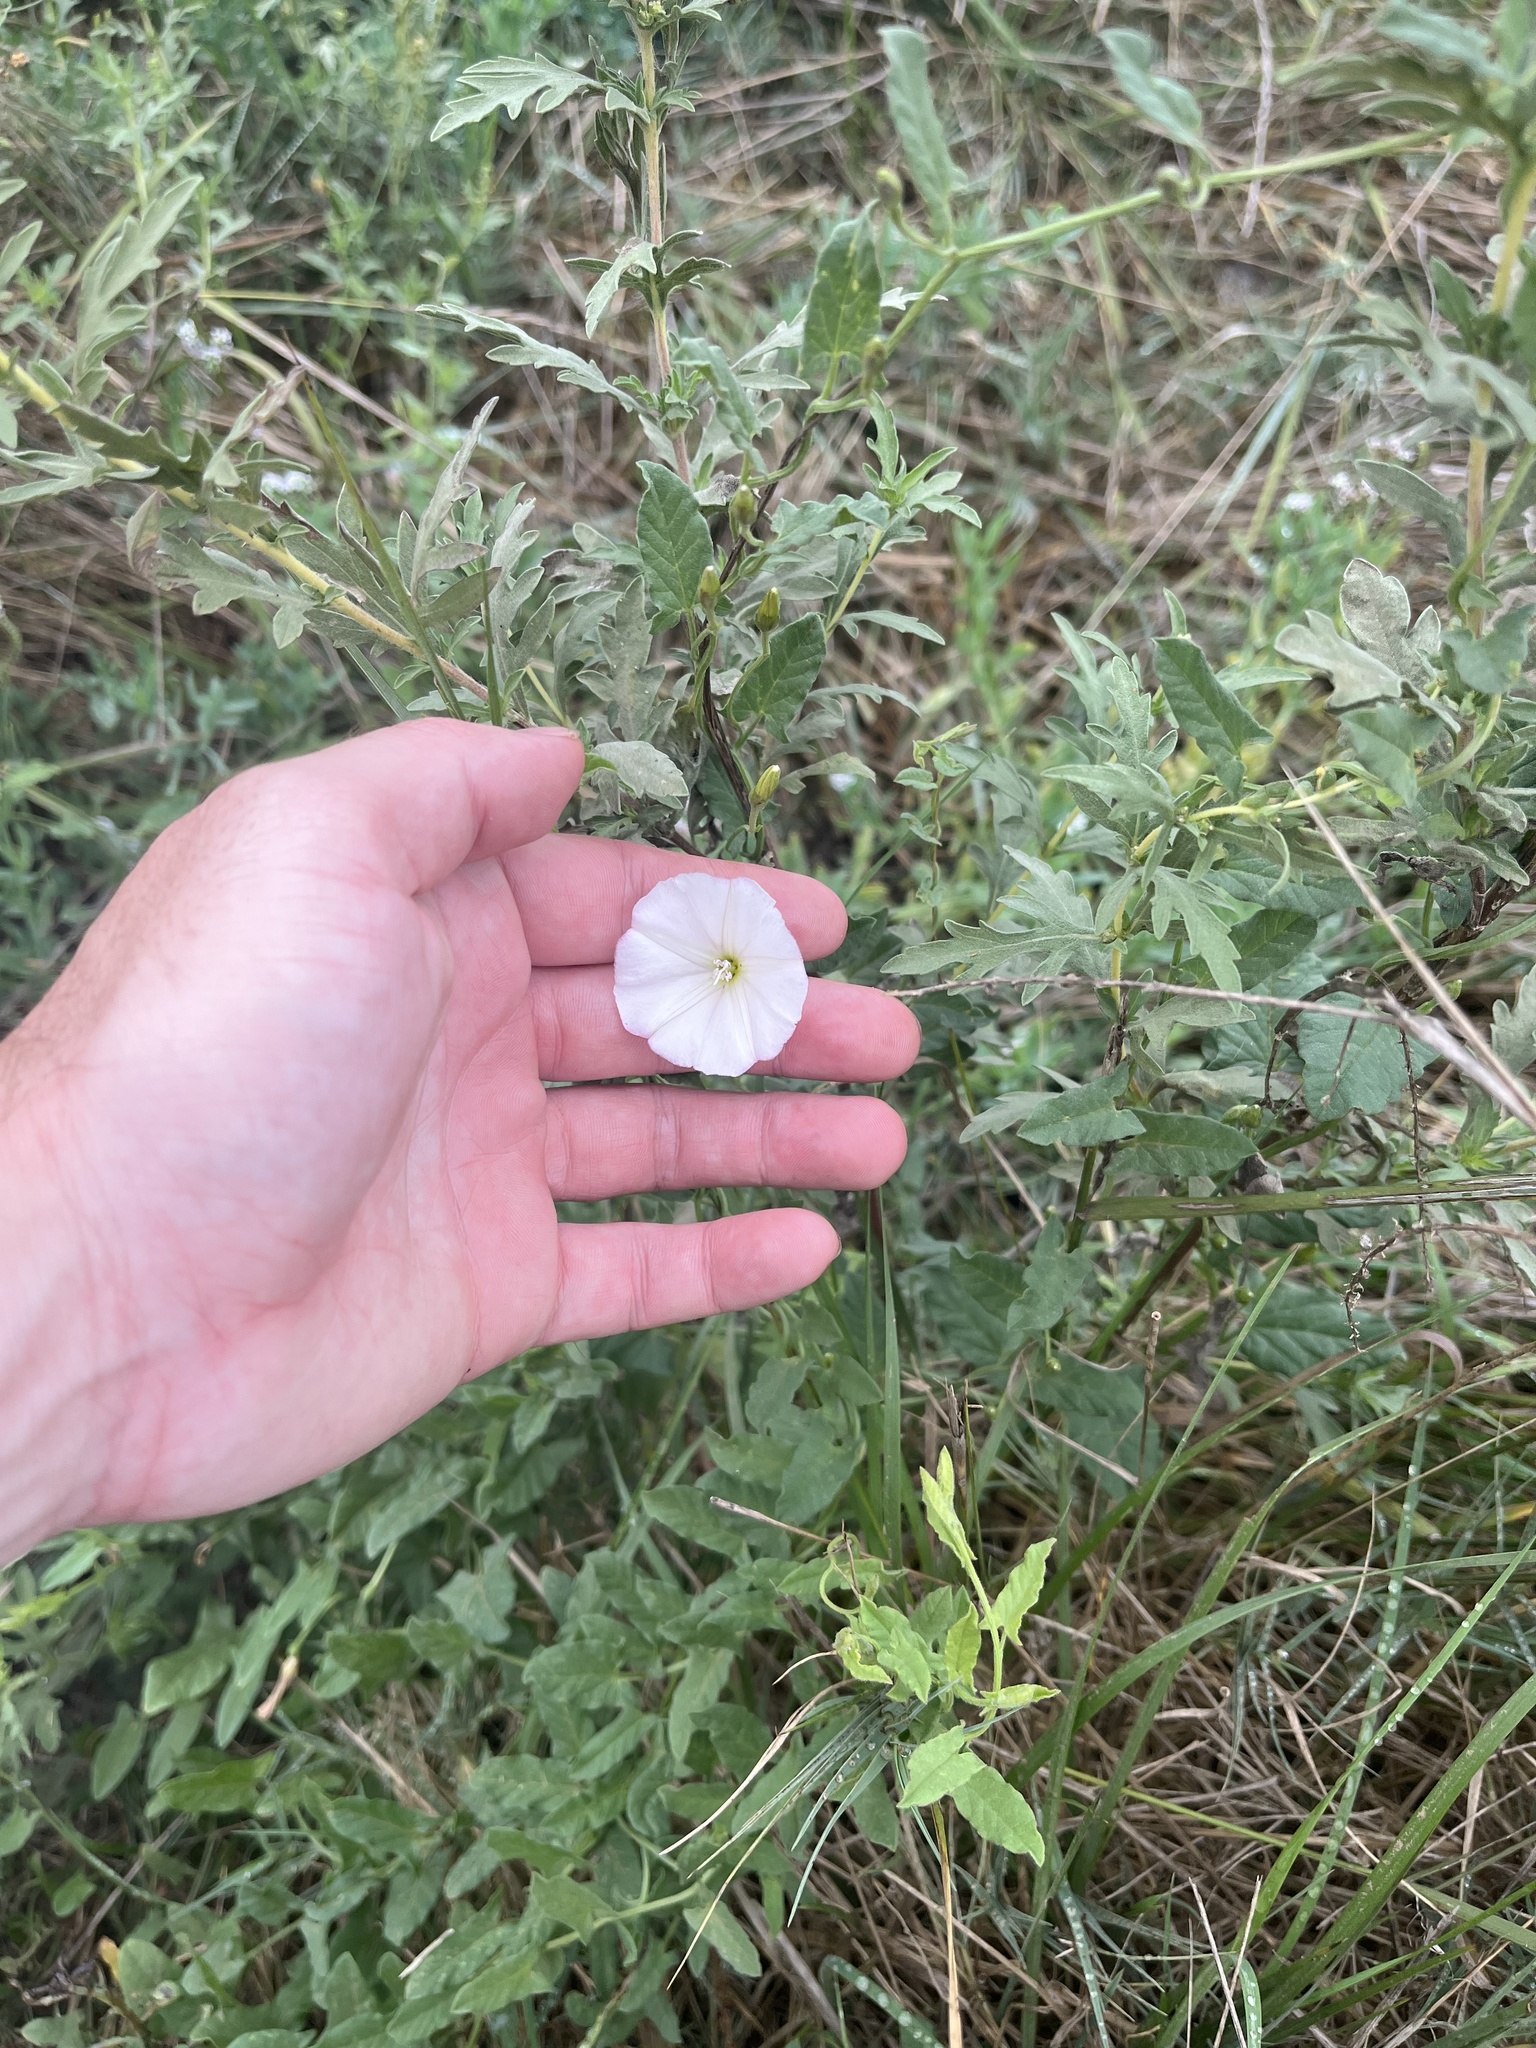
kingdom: Plantae
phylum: Tracheophyta
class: Magnoliopsida
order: Solanales
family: Convolvulaceae
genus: Convolvulus
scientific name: Convolvulus arvensis
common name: Field bindweed
